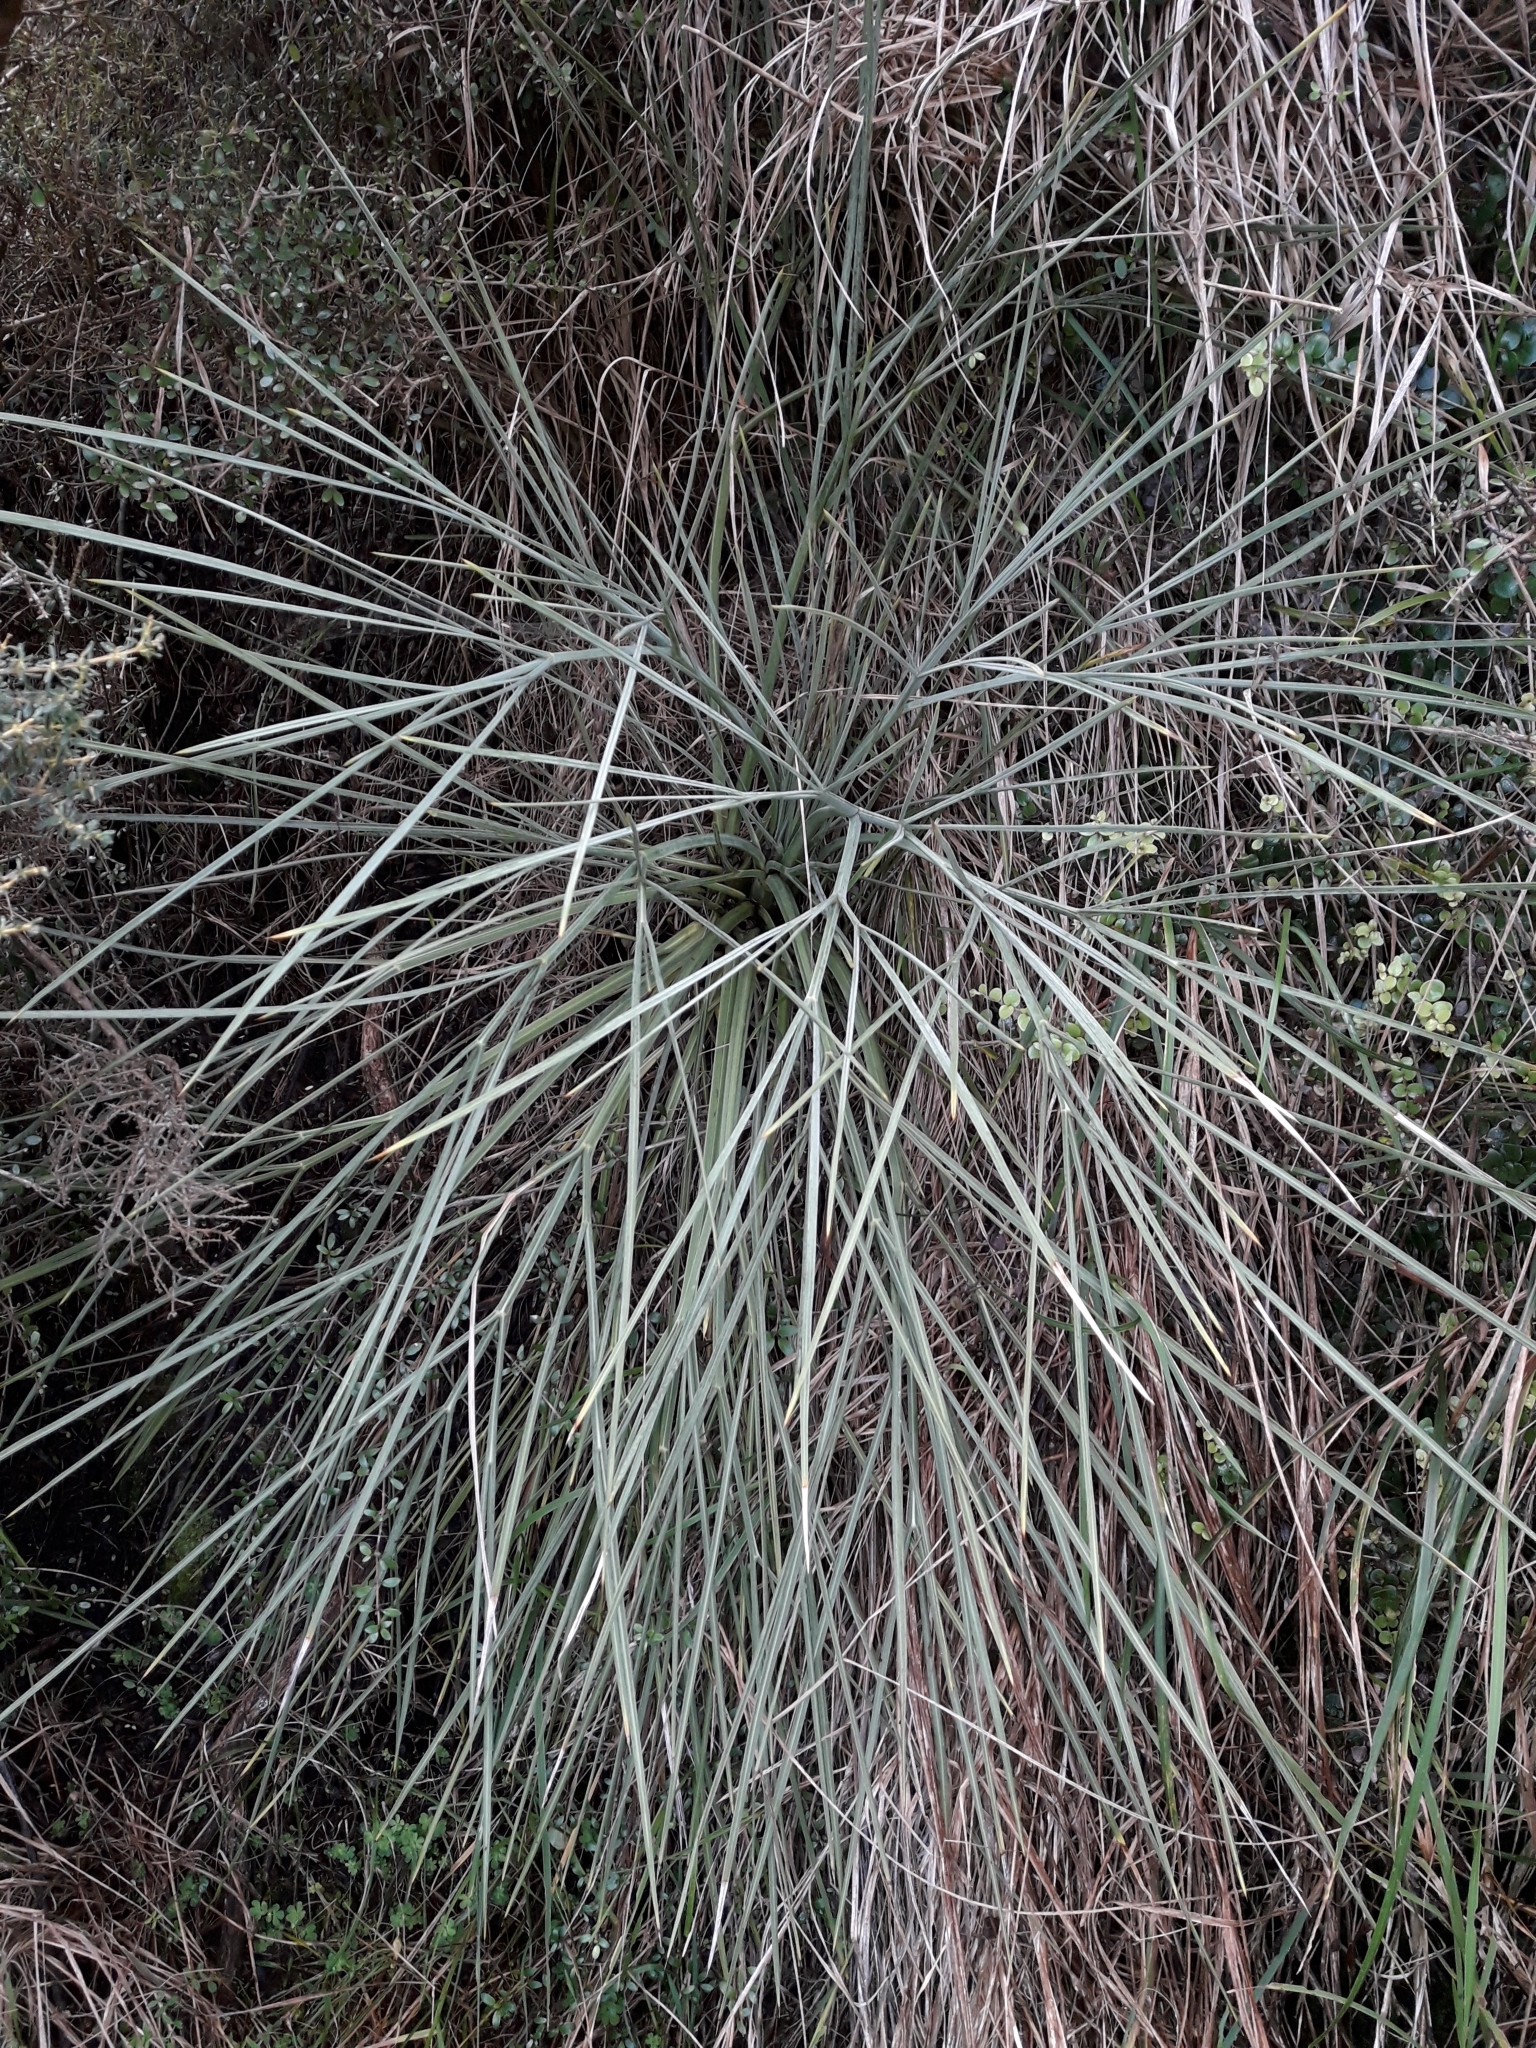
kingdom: Plantae
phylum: Tracheophyta
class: Magnoliopsida
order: Apiales
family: Apiaceae
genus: Aciphylla
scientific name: Aciphylla squarrosa
